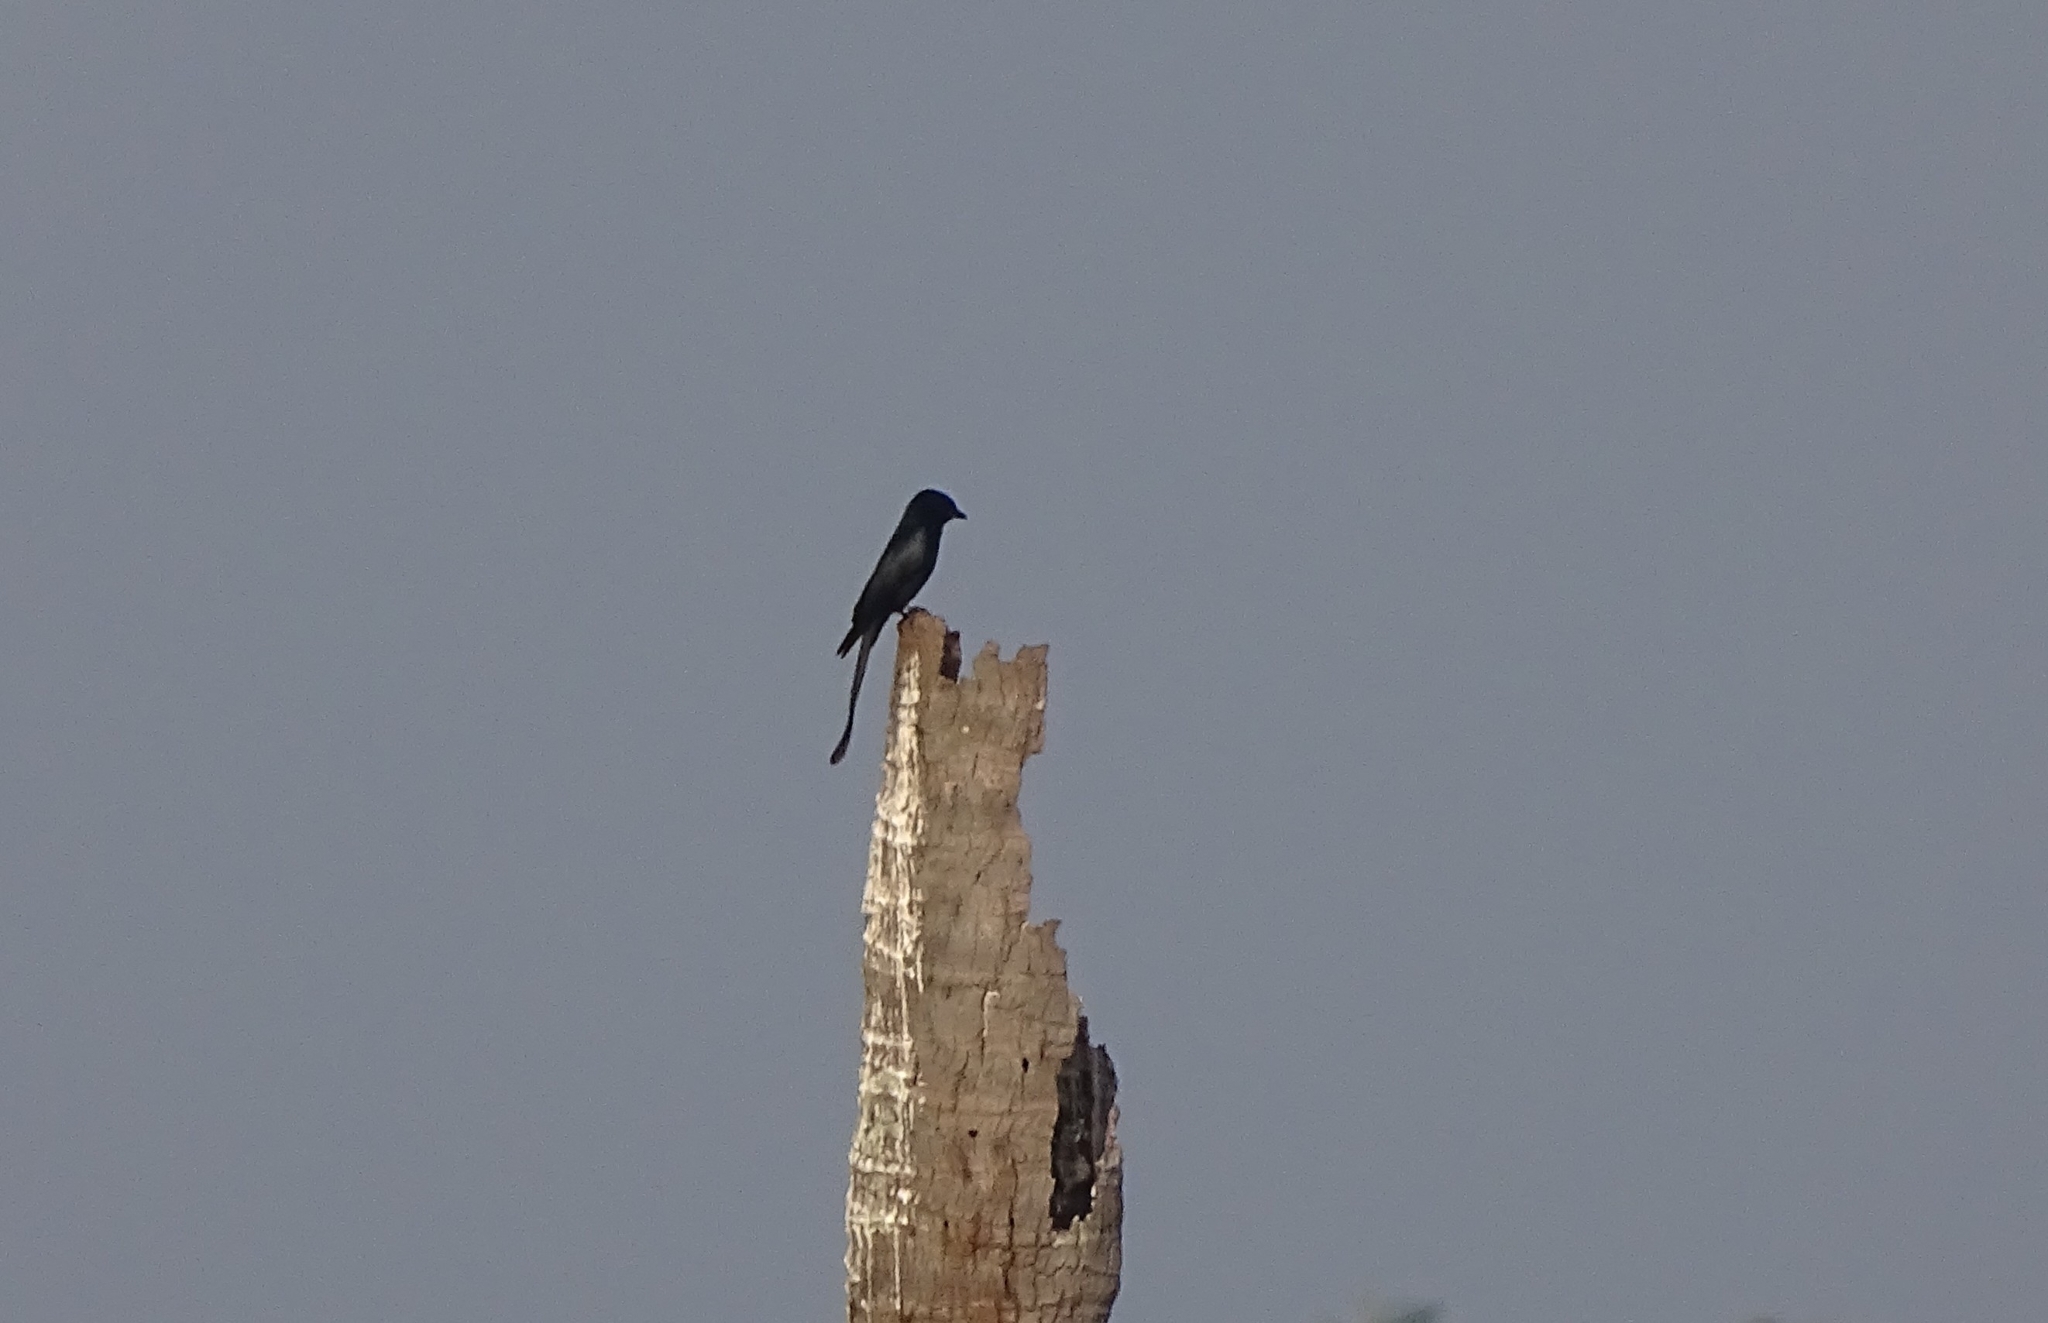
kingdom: Animalia
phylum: Chordata
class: Aves
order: Passeriformes
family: Dicruridae
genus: Dicrurus
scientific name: Dicrurus macrocercus
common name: Black drongo
